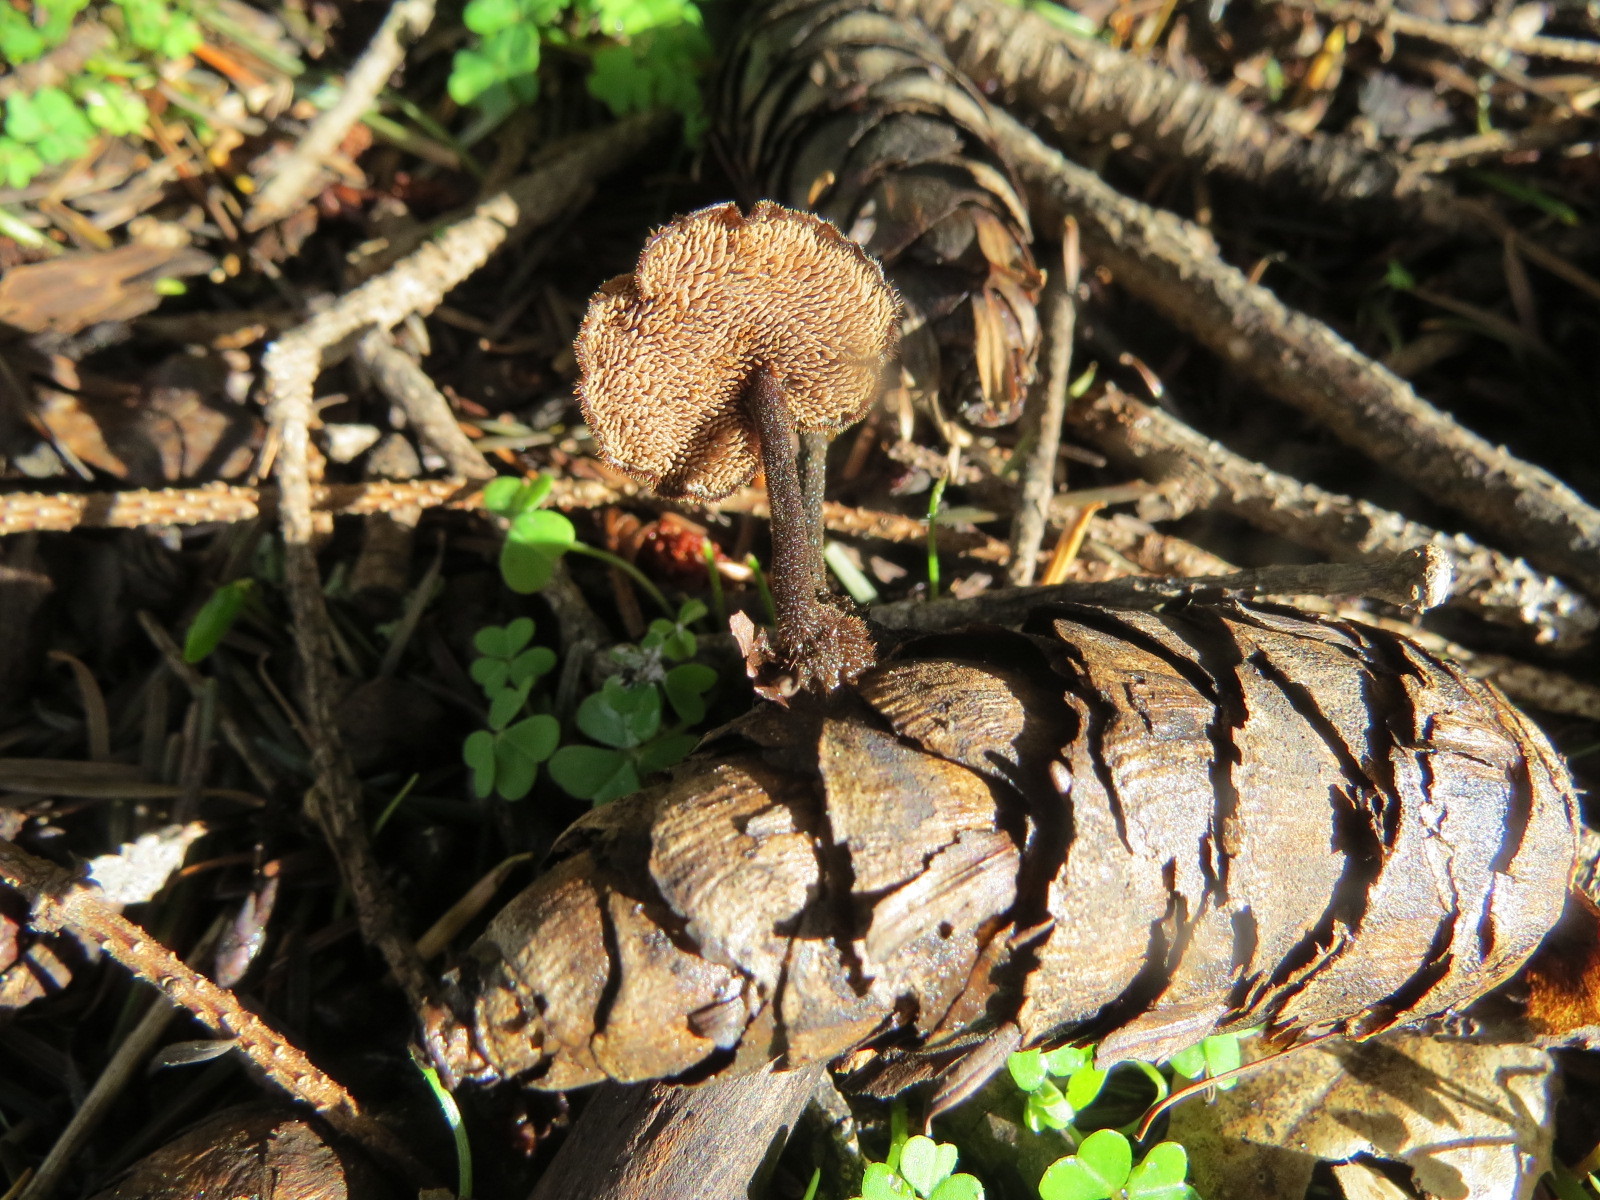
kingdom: Fungi
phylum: Basidiomycota
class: Agaricomycetes
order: Russulales
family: Auriscalpiaceae
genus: Auriscalpium
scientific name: Auriscalpium vulgare
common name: Earpick fungus
